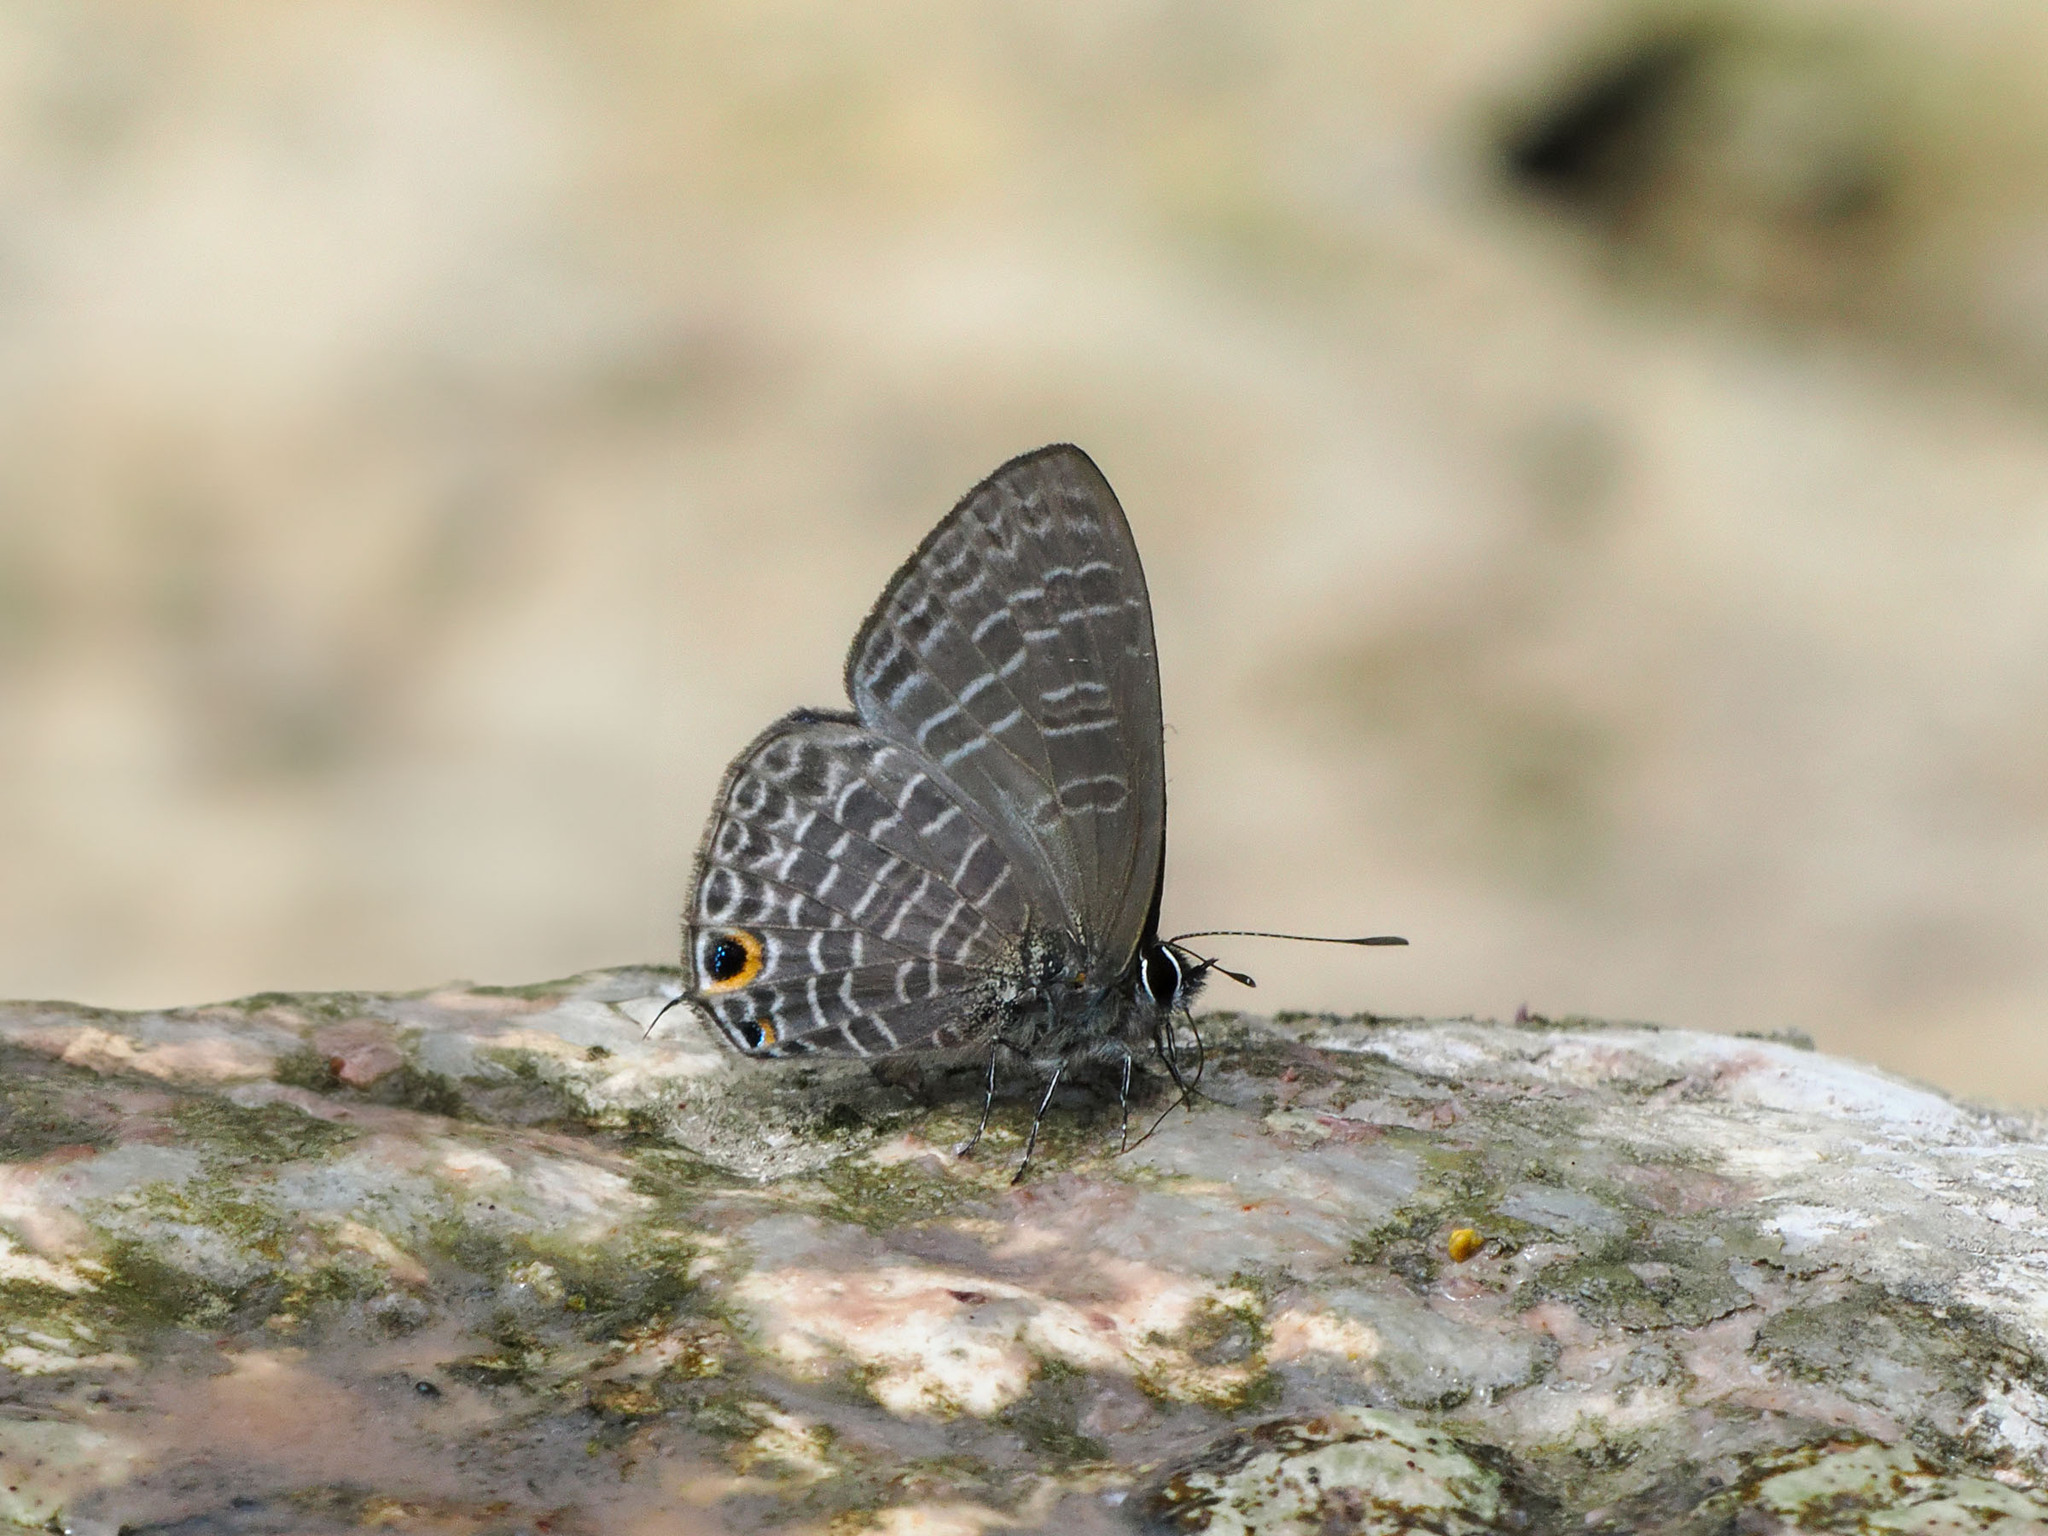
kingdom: Animalia
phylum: Arthropoda
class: Insecta
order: Lepidoptera
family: Lycaenidae
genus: Nacaduba
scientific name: Nacaduba major
